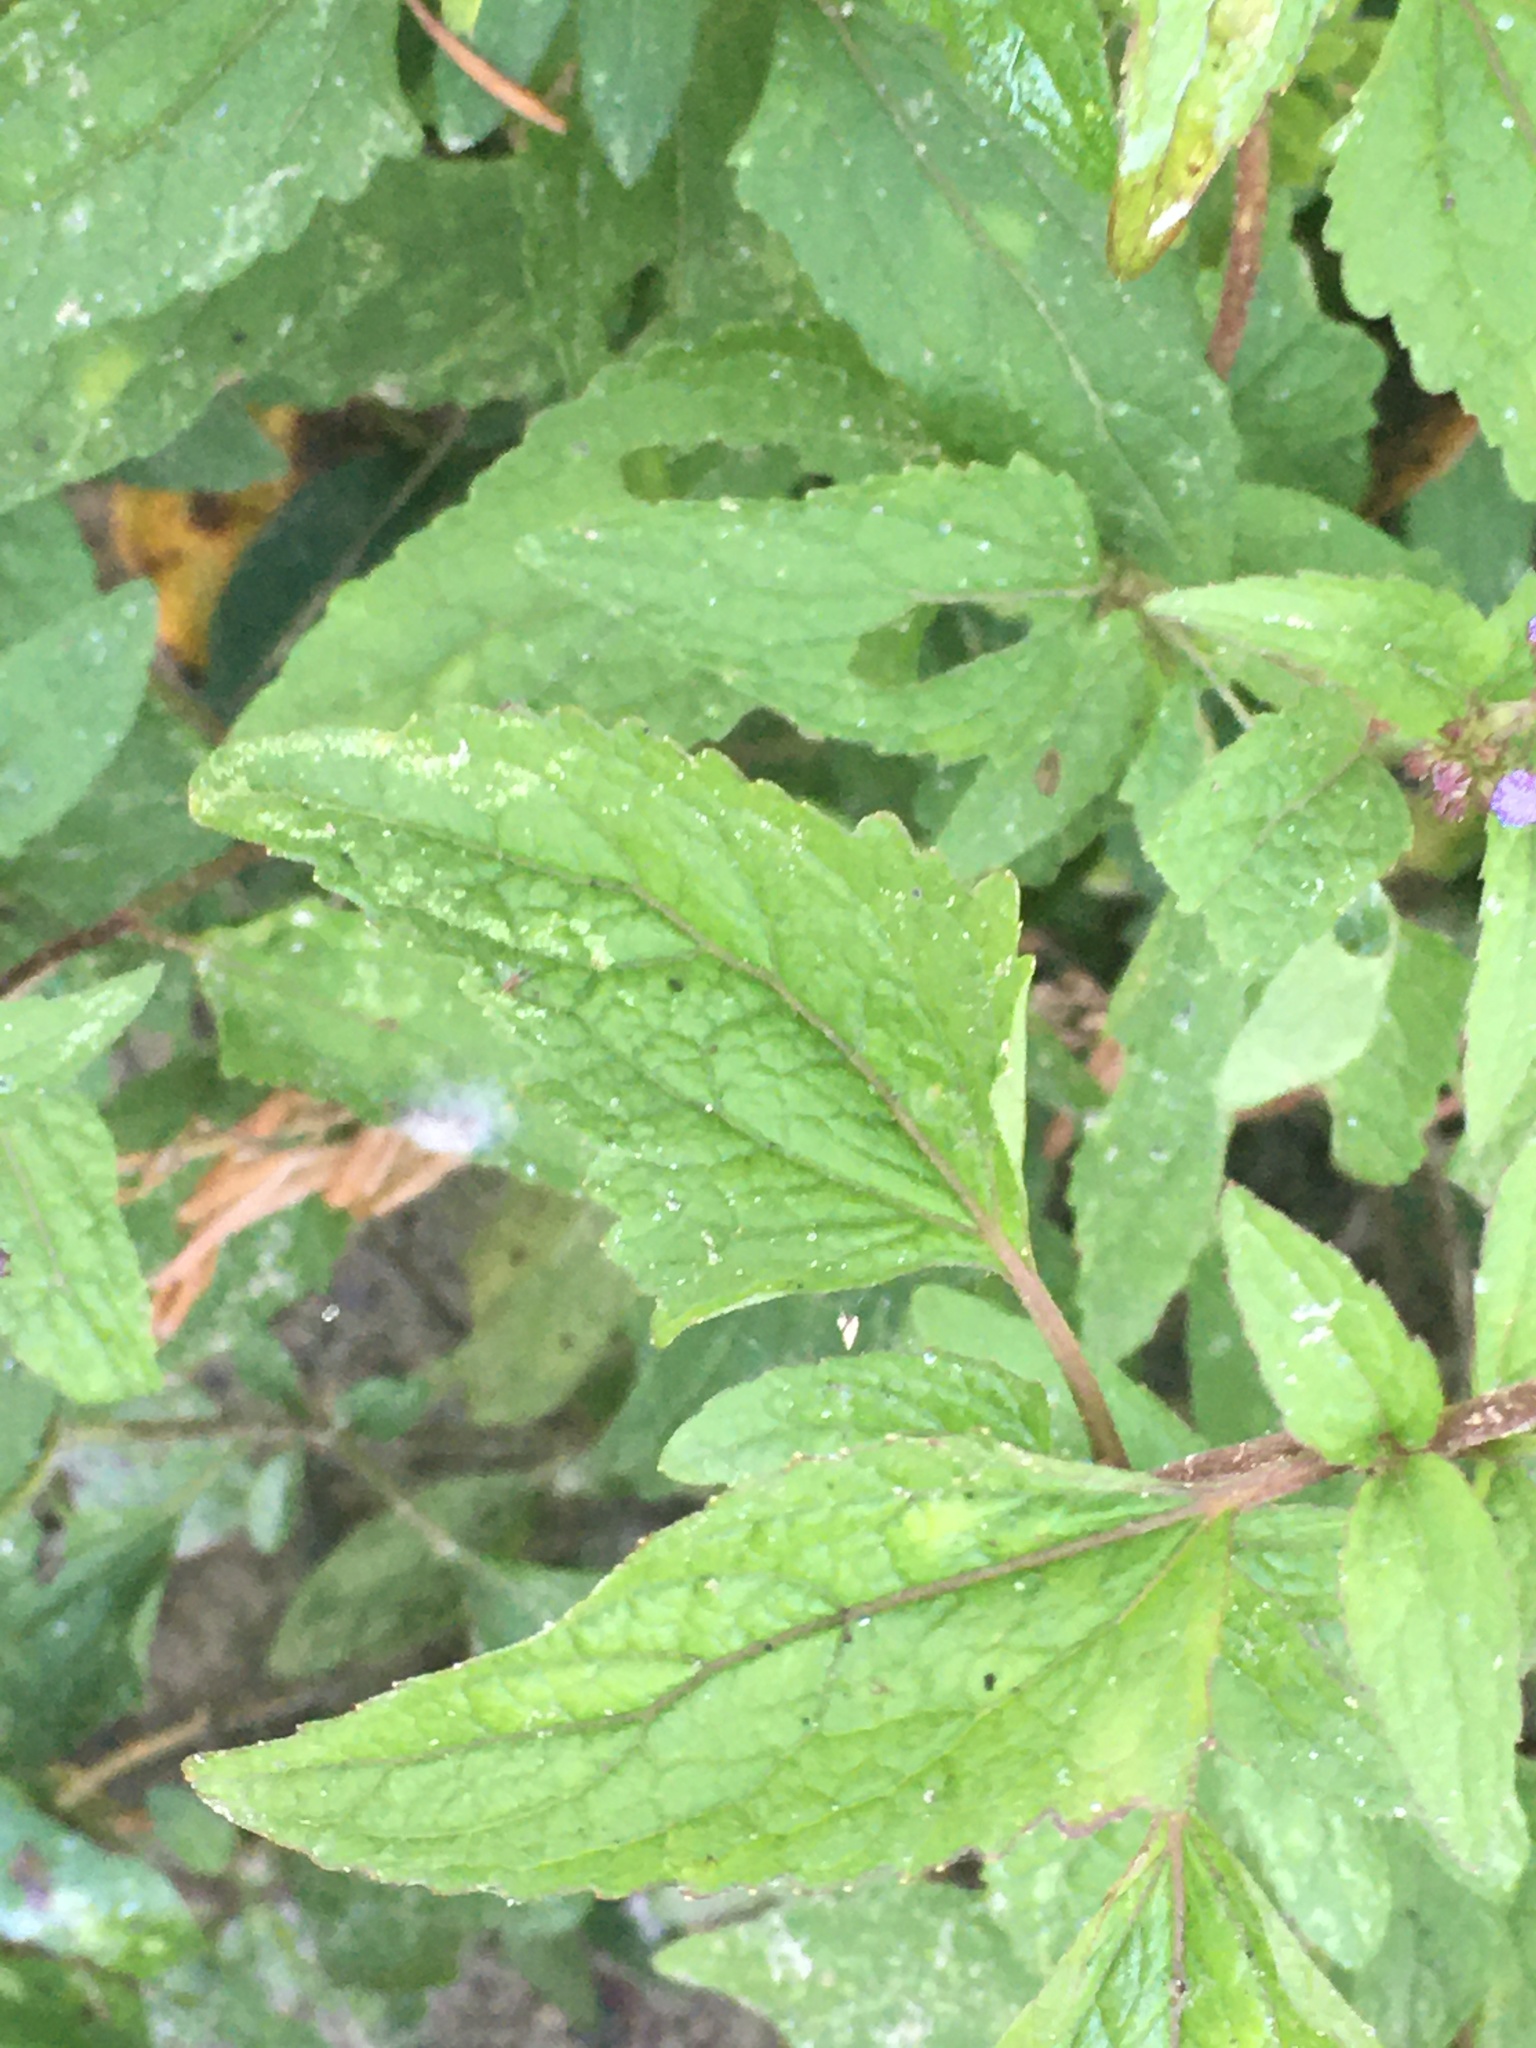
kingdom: Plantae
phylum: Tracheophyta
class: Magnoliopsida
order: Asterales
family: Asteraceae
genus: Conoclinium
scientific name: Conoclinium coelestinum
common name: Blue mistflower
